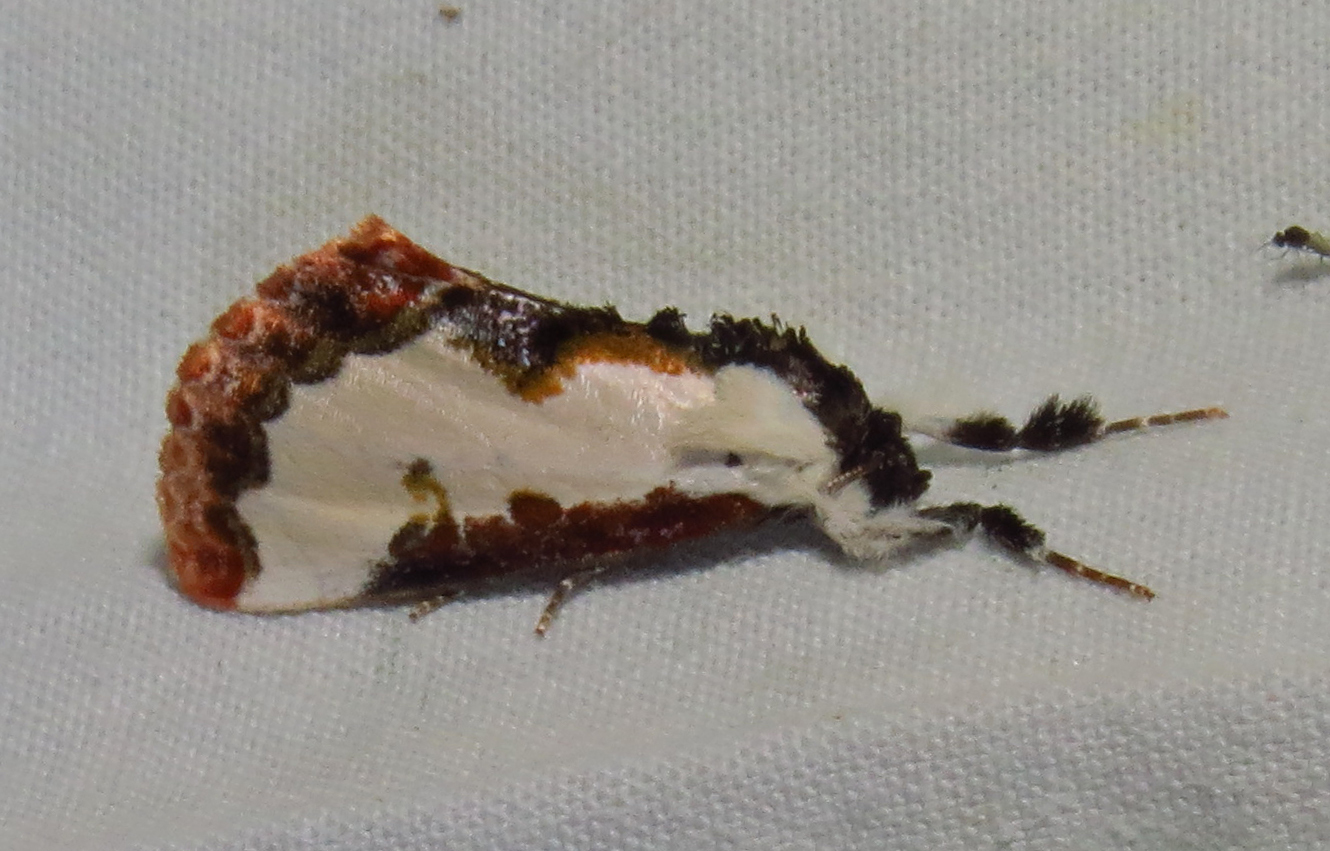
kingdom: Animalia
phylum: Arthropoda
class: Insecta
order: Lepidoptera
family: Noctuidae
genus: Eudryas
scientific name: Eudryas unio
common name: Pearly wood-nymph
